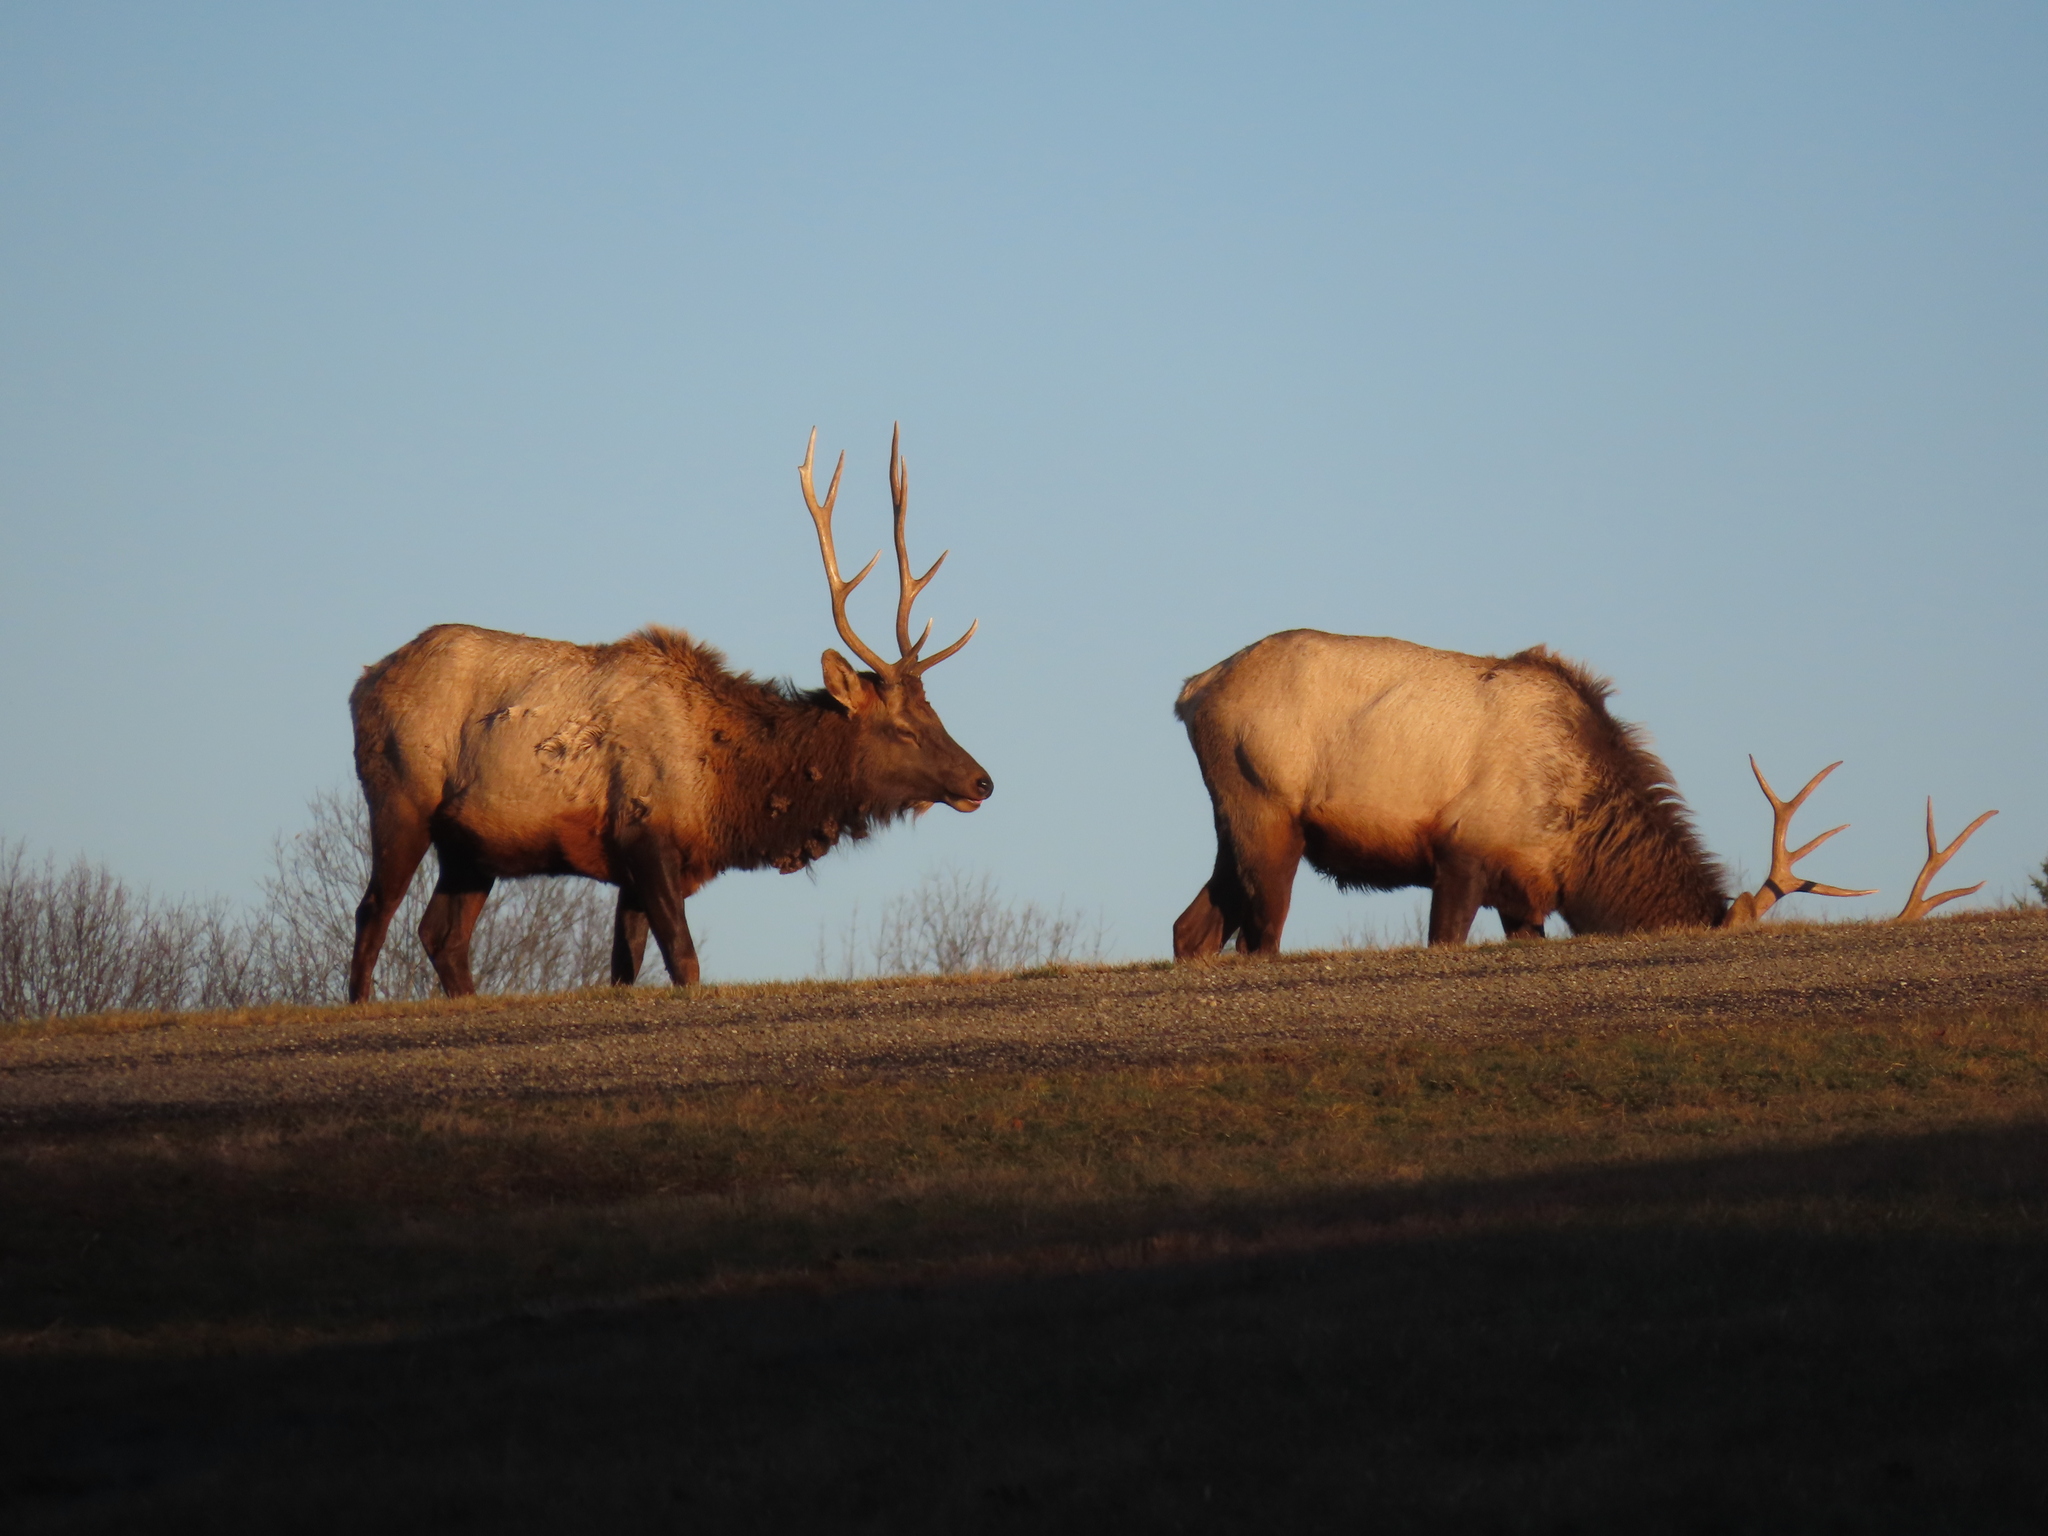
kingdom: Animalia
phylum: Chordata
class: Mammalia
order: Artiodactyla
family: Cervidae
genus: Cervus
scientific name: Cervus elaphus
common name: Red deer
